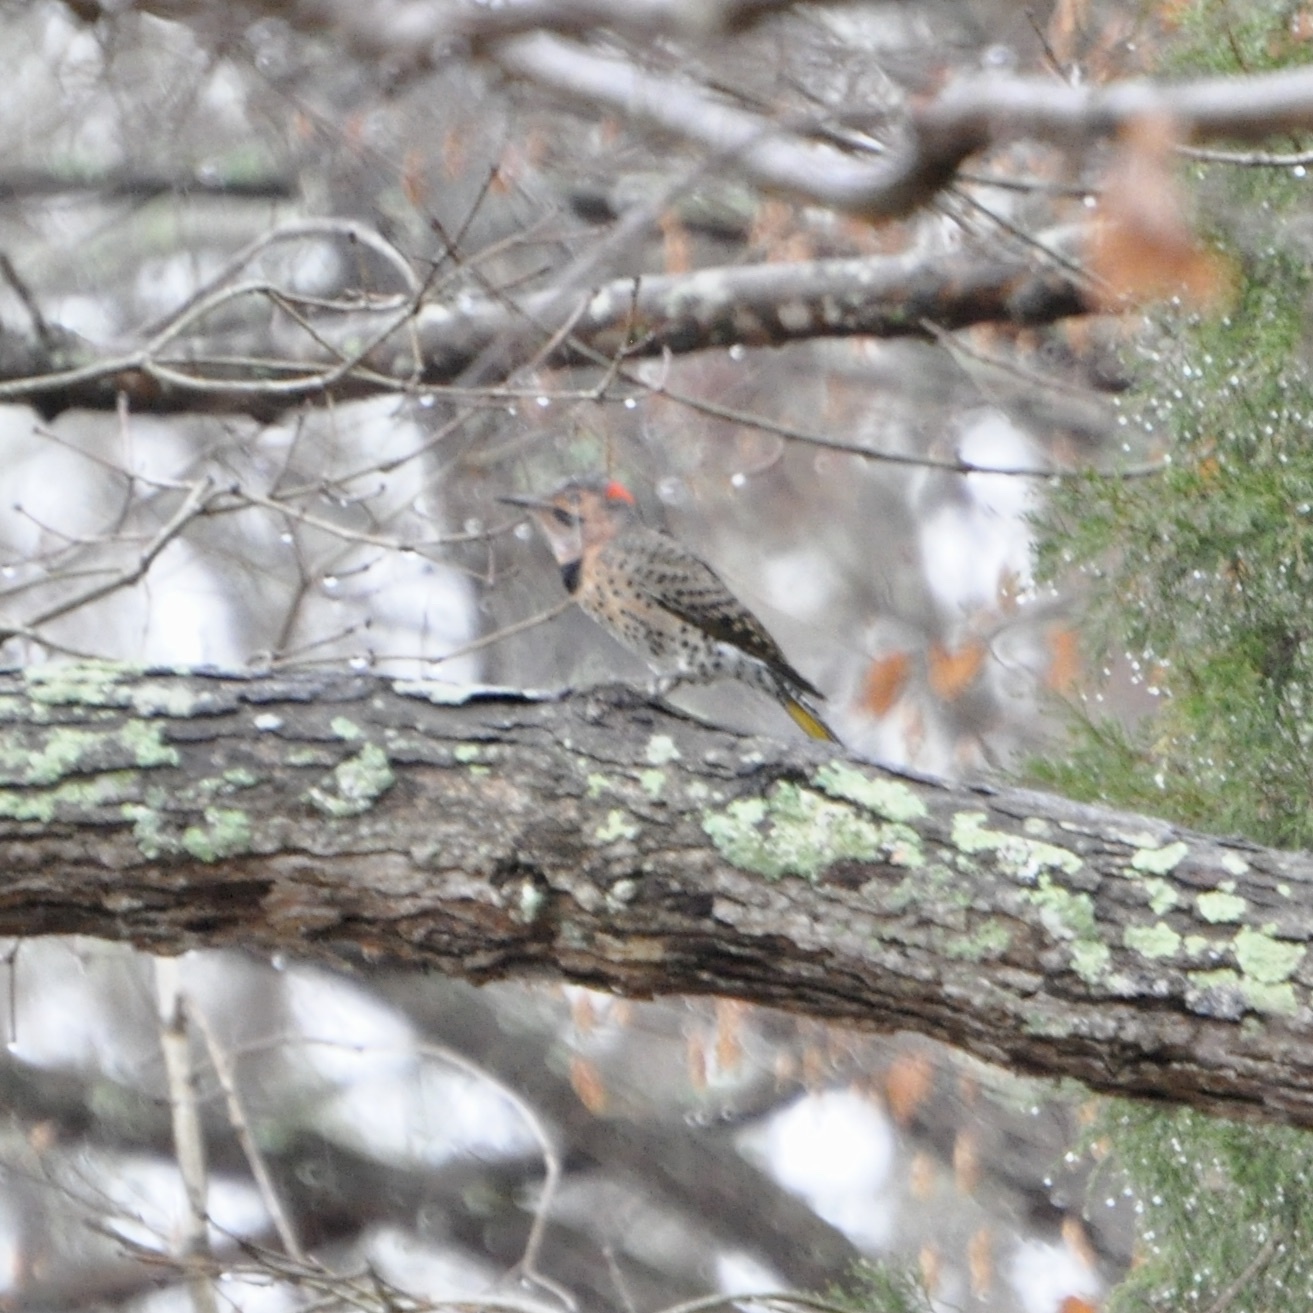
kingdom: Animalia
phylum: Chordata
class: Aves
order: Piciformes
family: Picidae
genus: Colaptes
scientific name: Colaptes auratus
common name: Northern flicker
